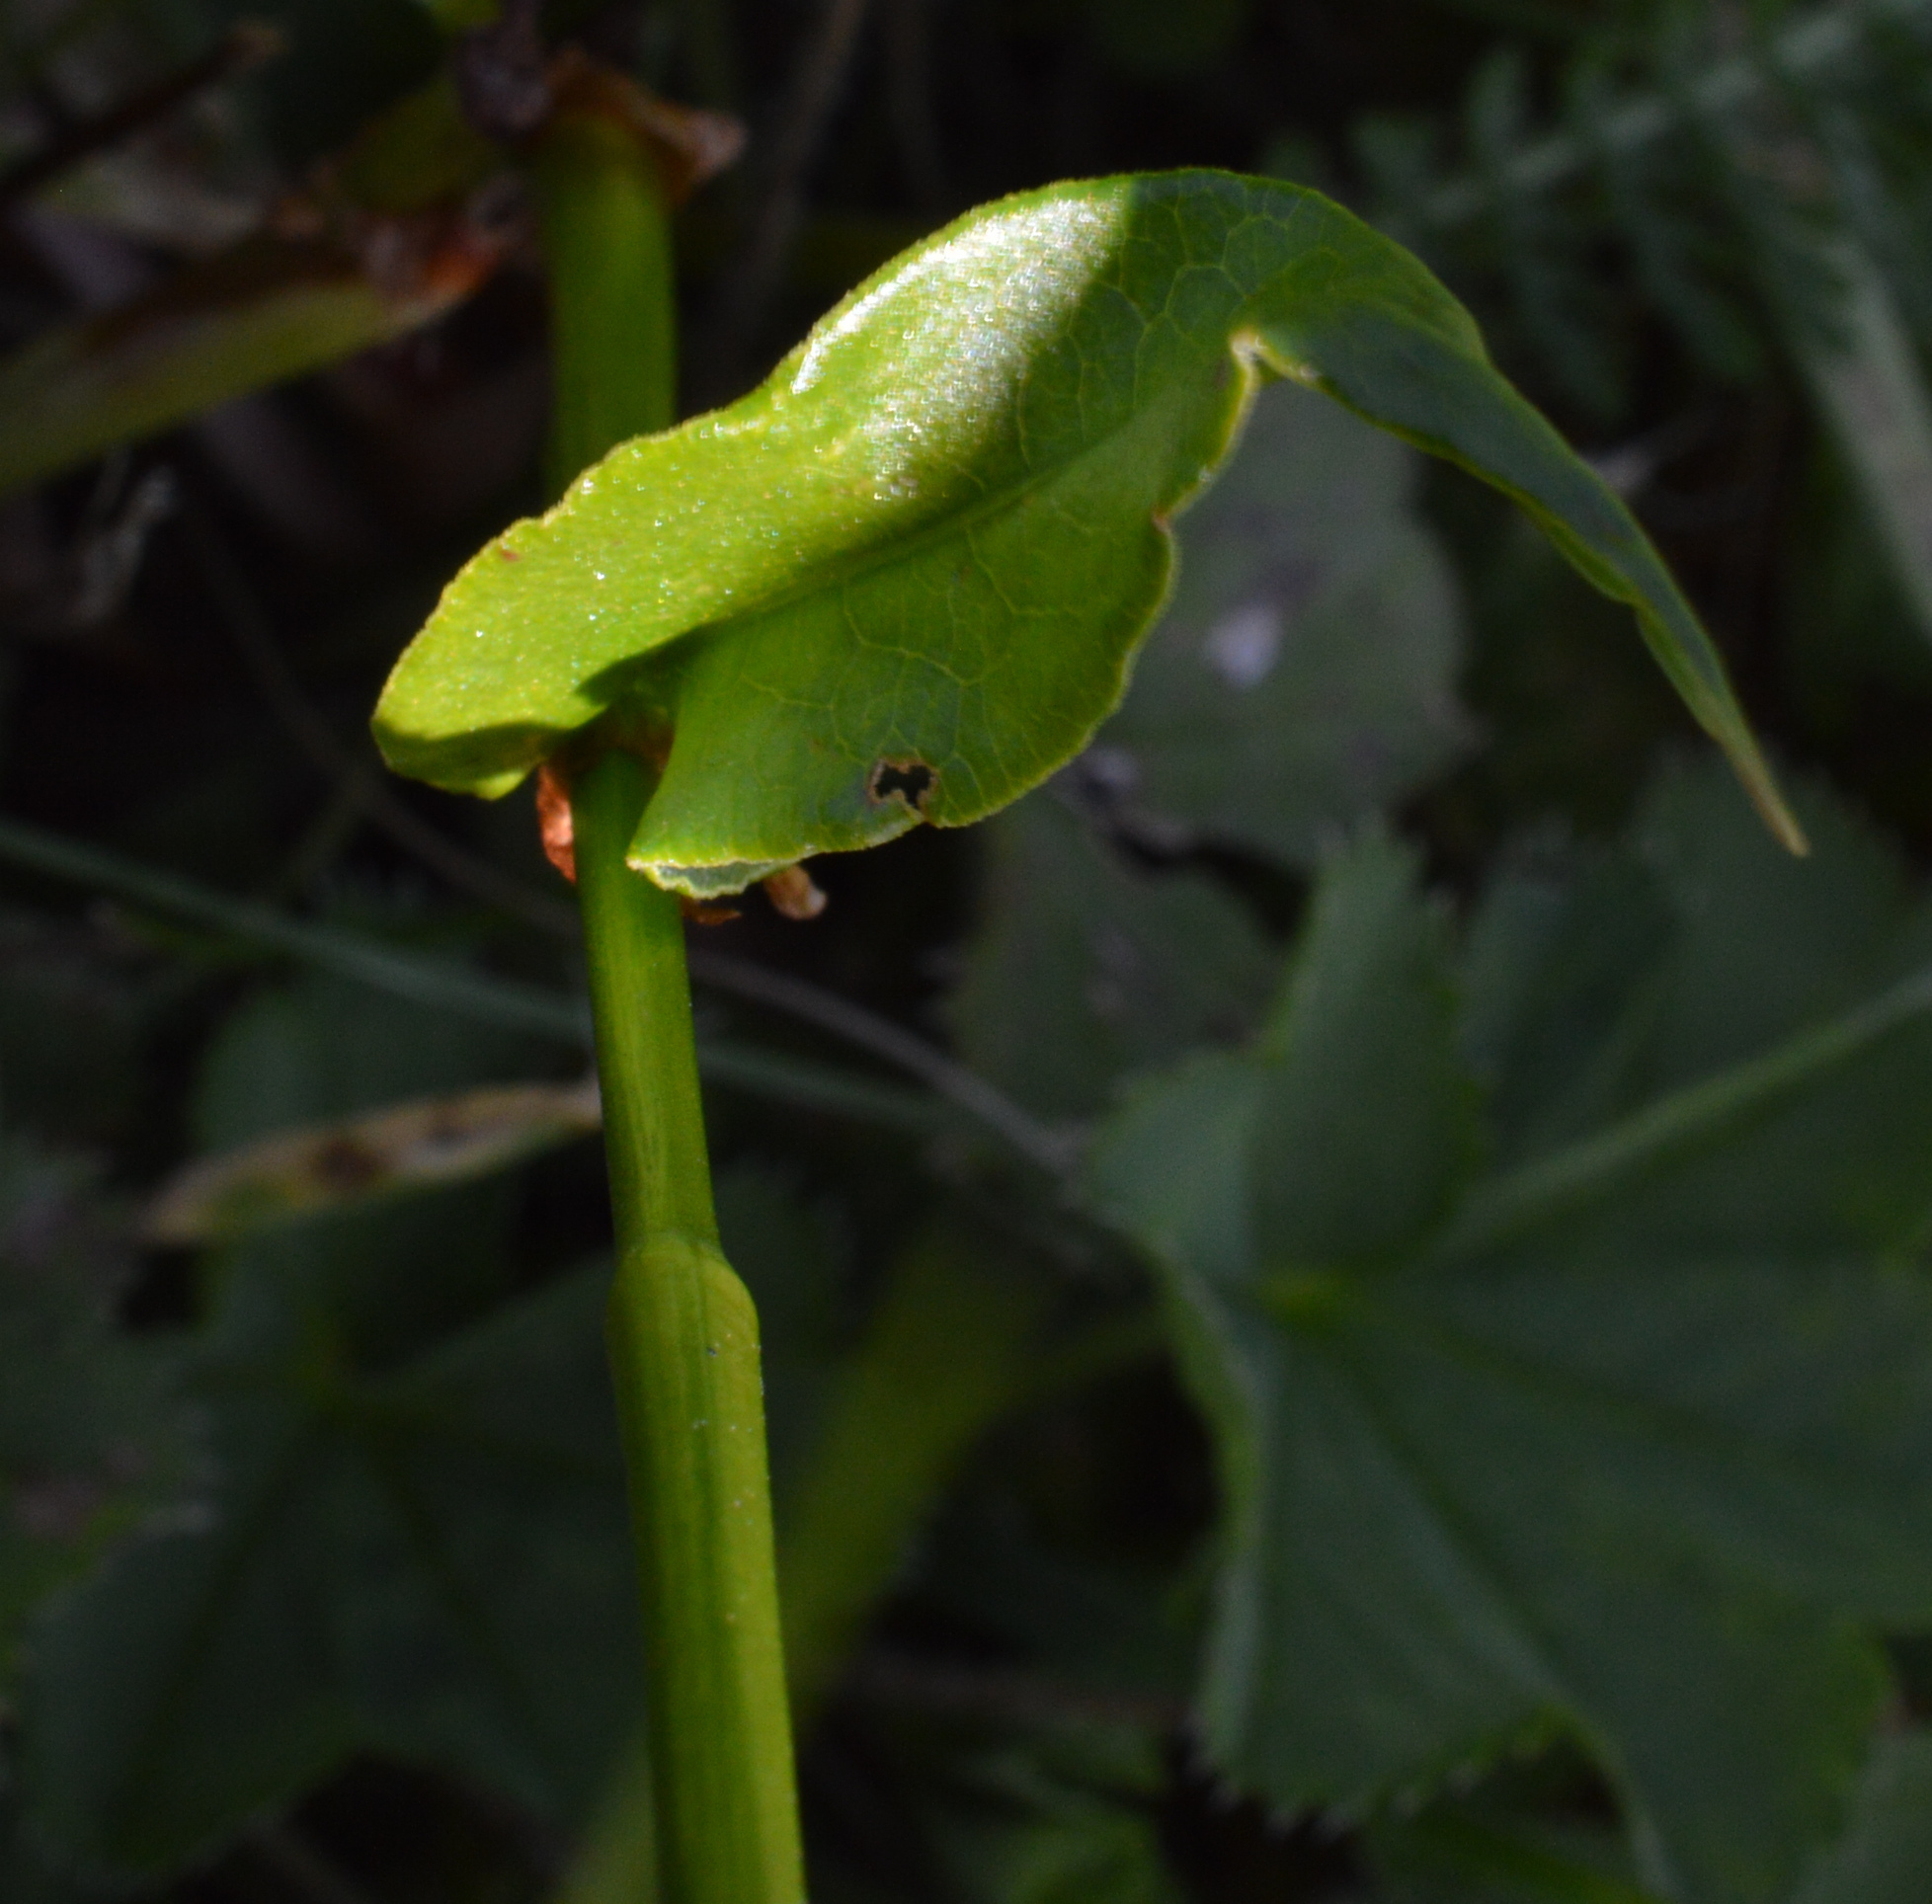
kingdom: Plantae
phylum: Tracheophyta
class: Magnoliopsida
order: Caryophyllales
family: Polygonaceae
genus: Bistorta
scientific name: Bistorta officinalis
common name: Common bistort
